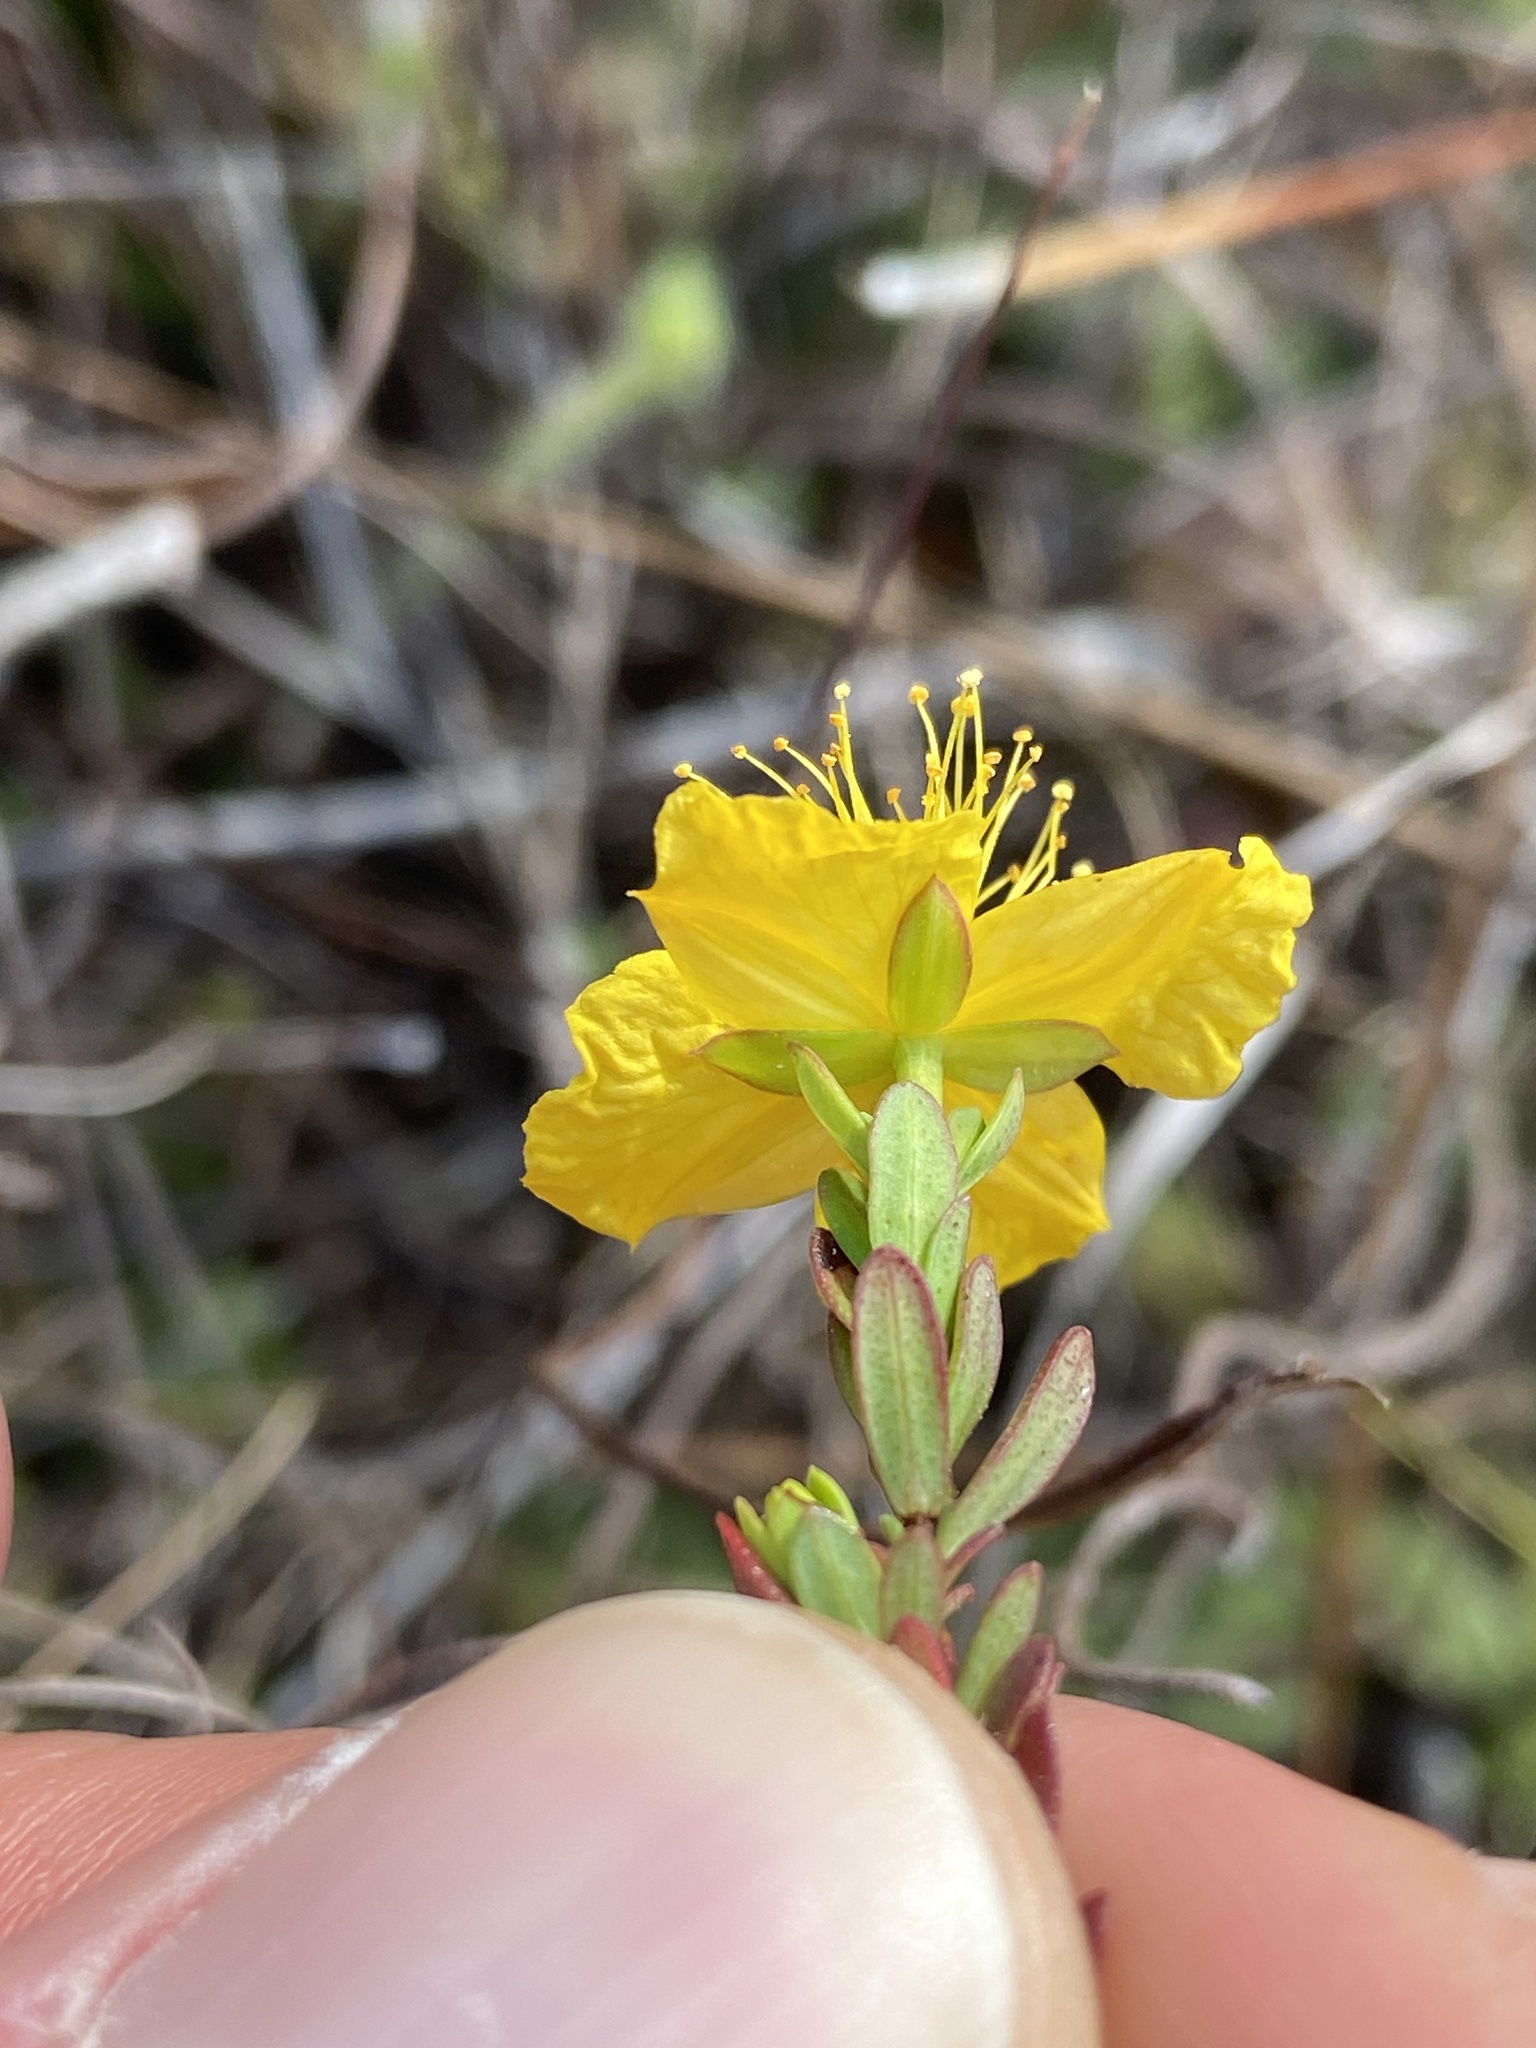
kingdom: Plantae
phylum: Tracheophyta
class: Magnoliopsida
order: Malpighiales
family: Hypericaceae
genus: Hypericum
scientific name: Hypericum microsepalum
